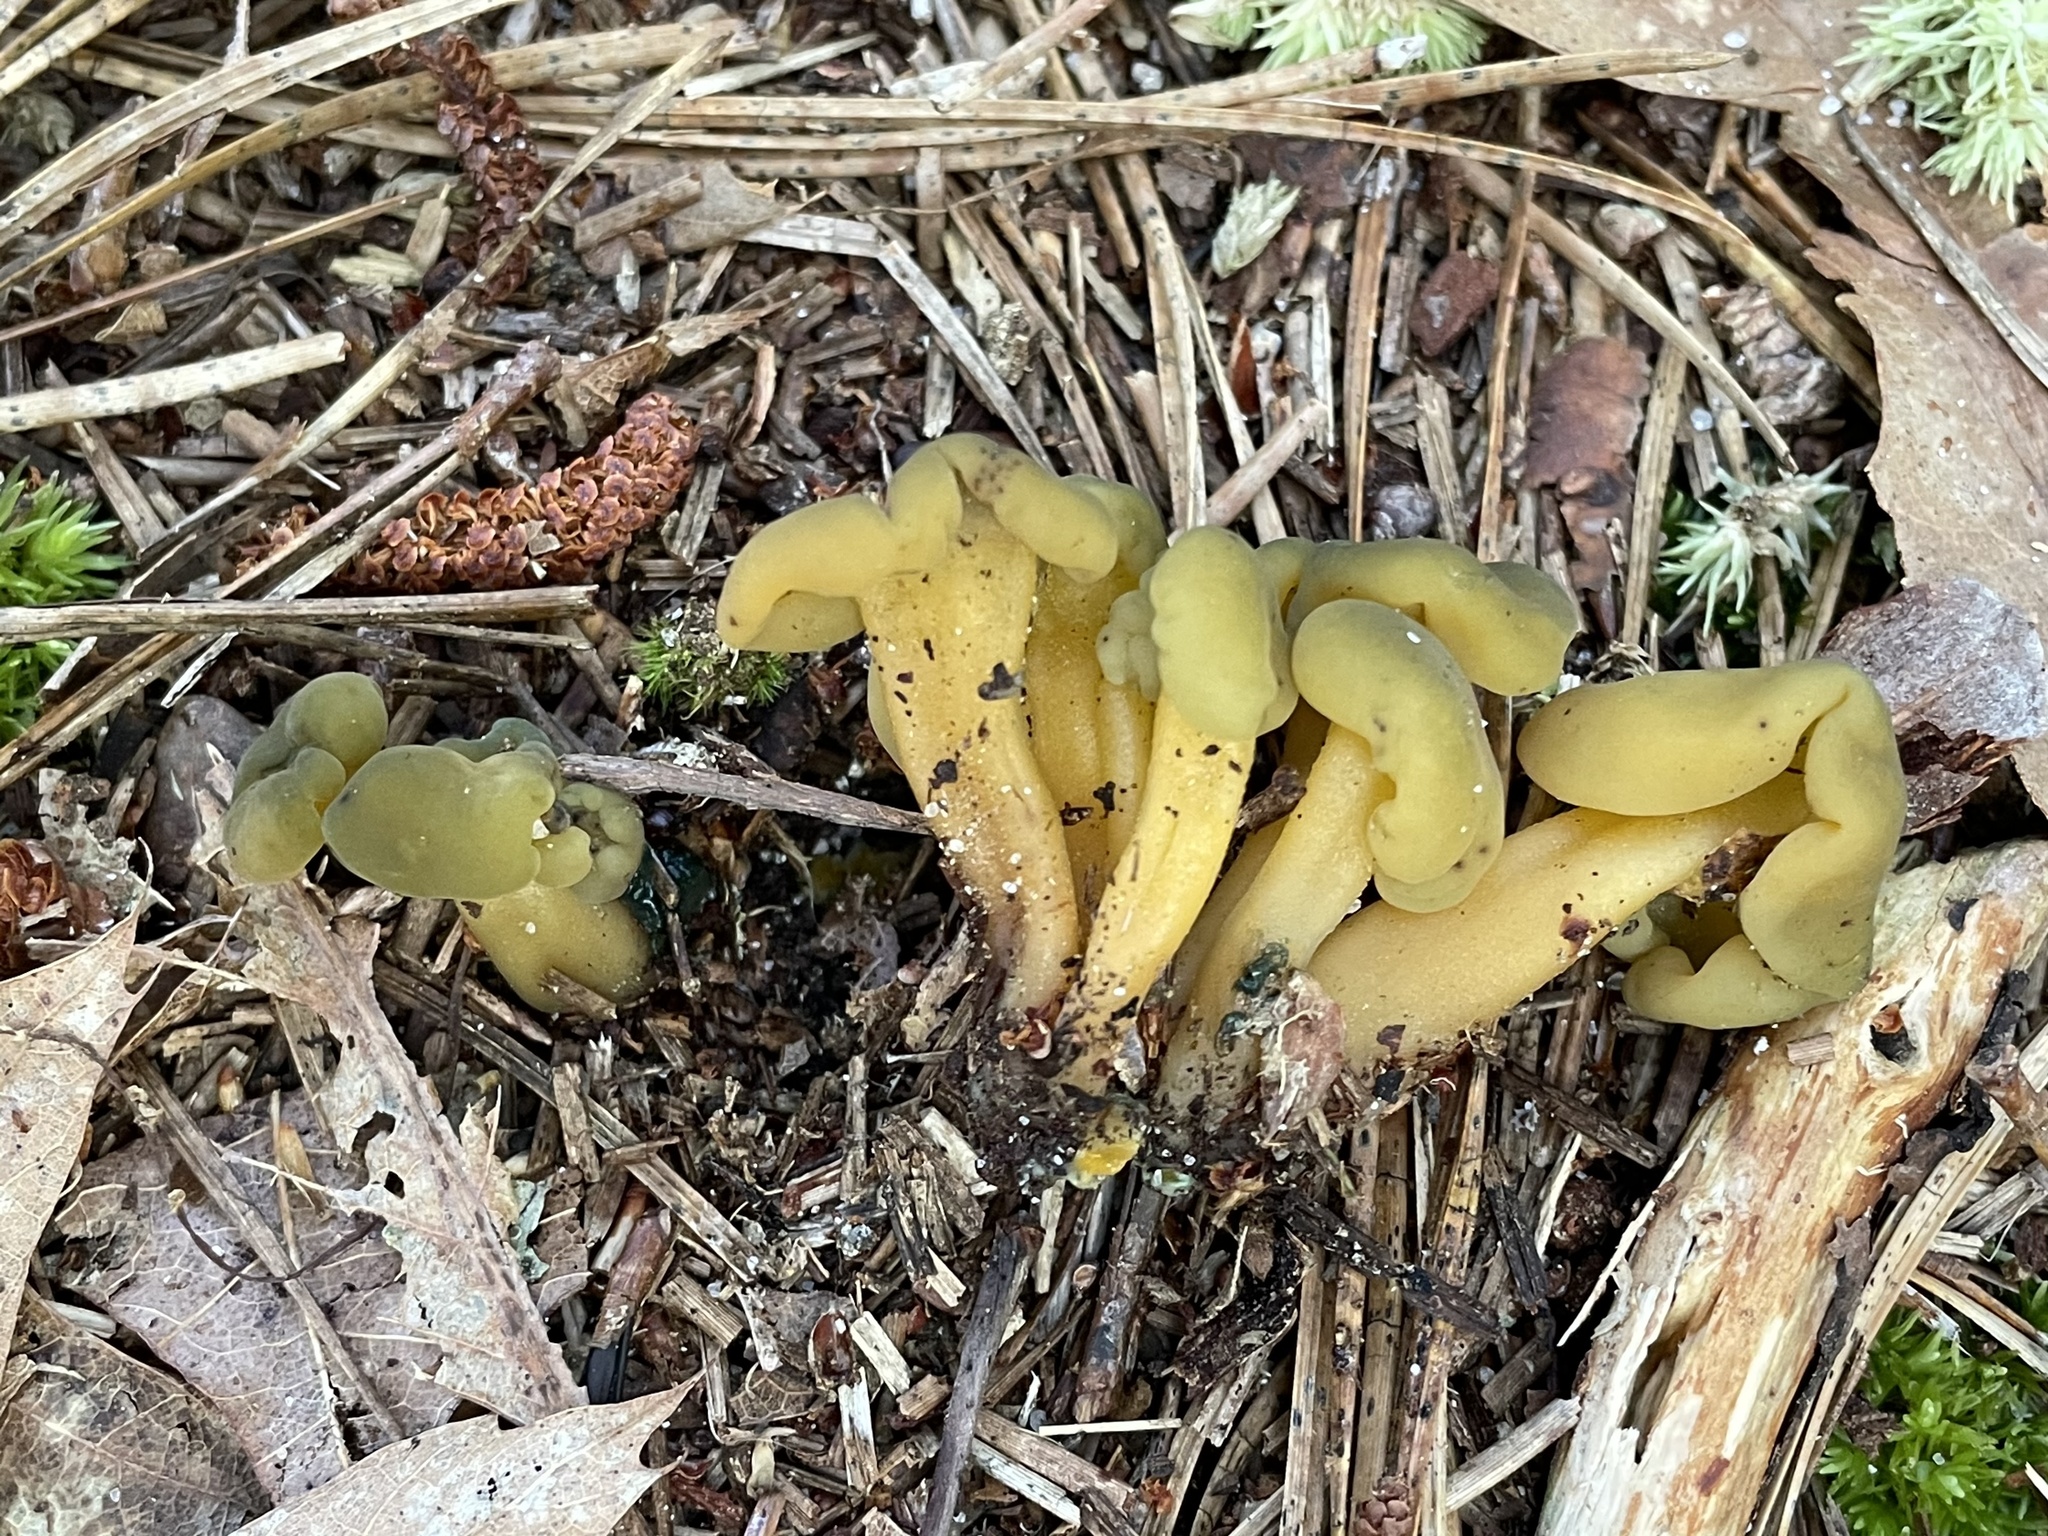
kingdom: Fungi
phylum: Ascomycota
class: Leotiomycetes
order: Leotiales
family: Leotiaceae
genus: Leotia
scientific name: Leotia lubrica
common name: Jellybaby
